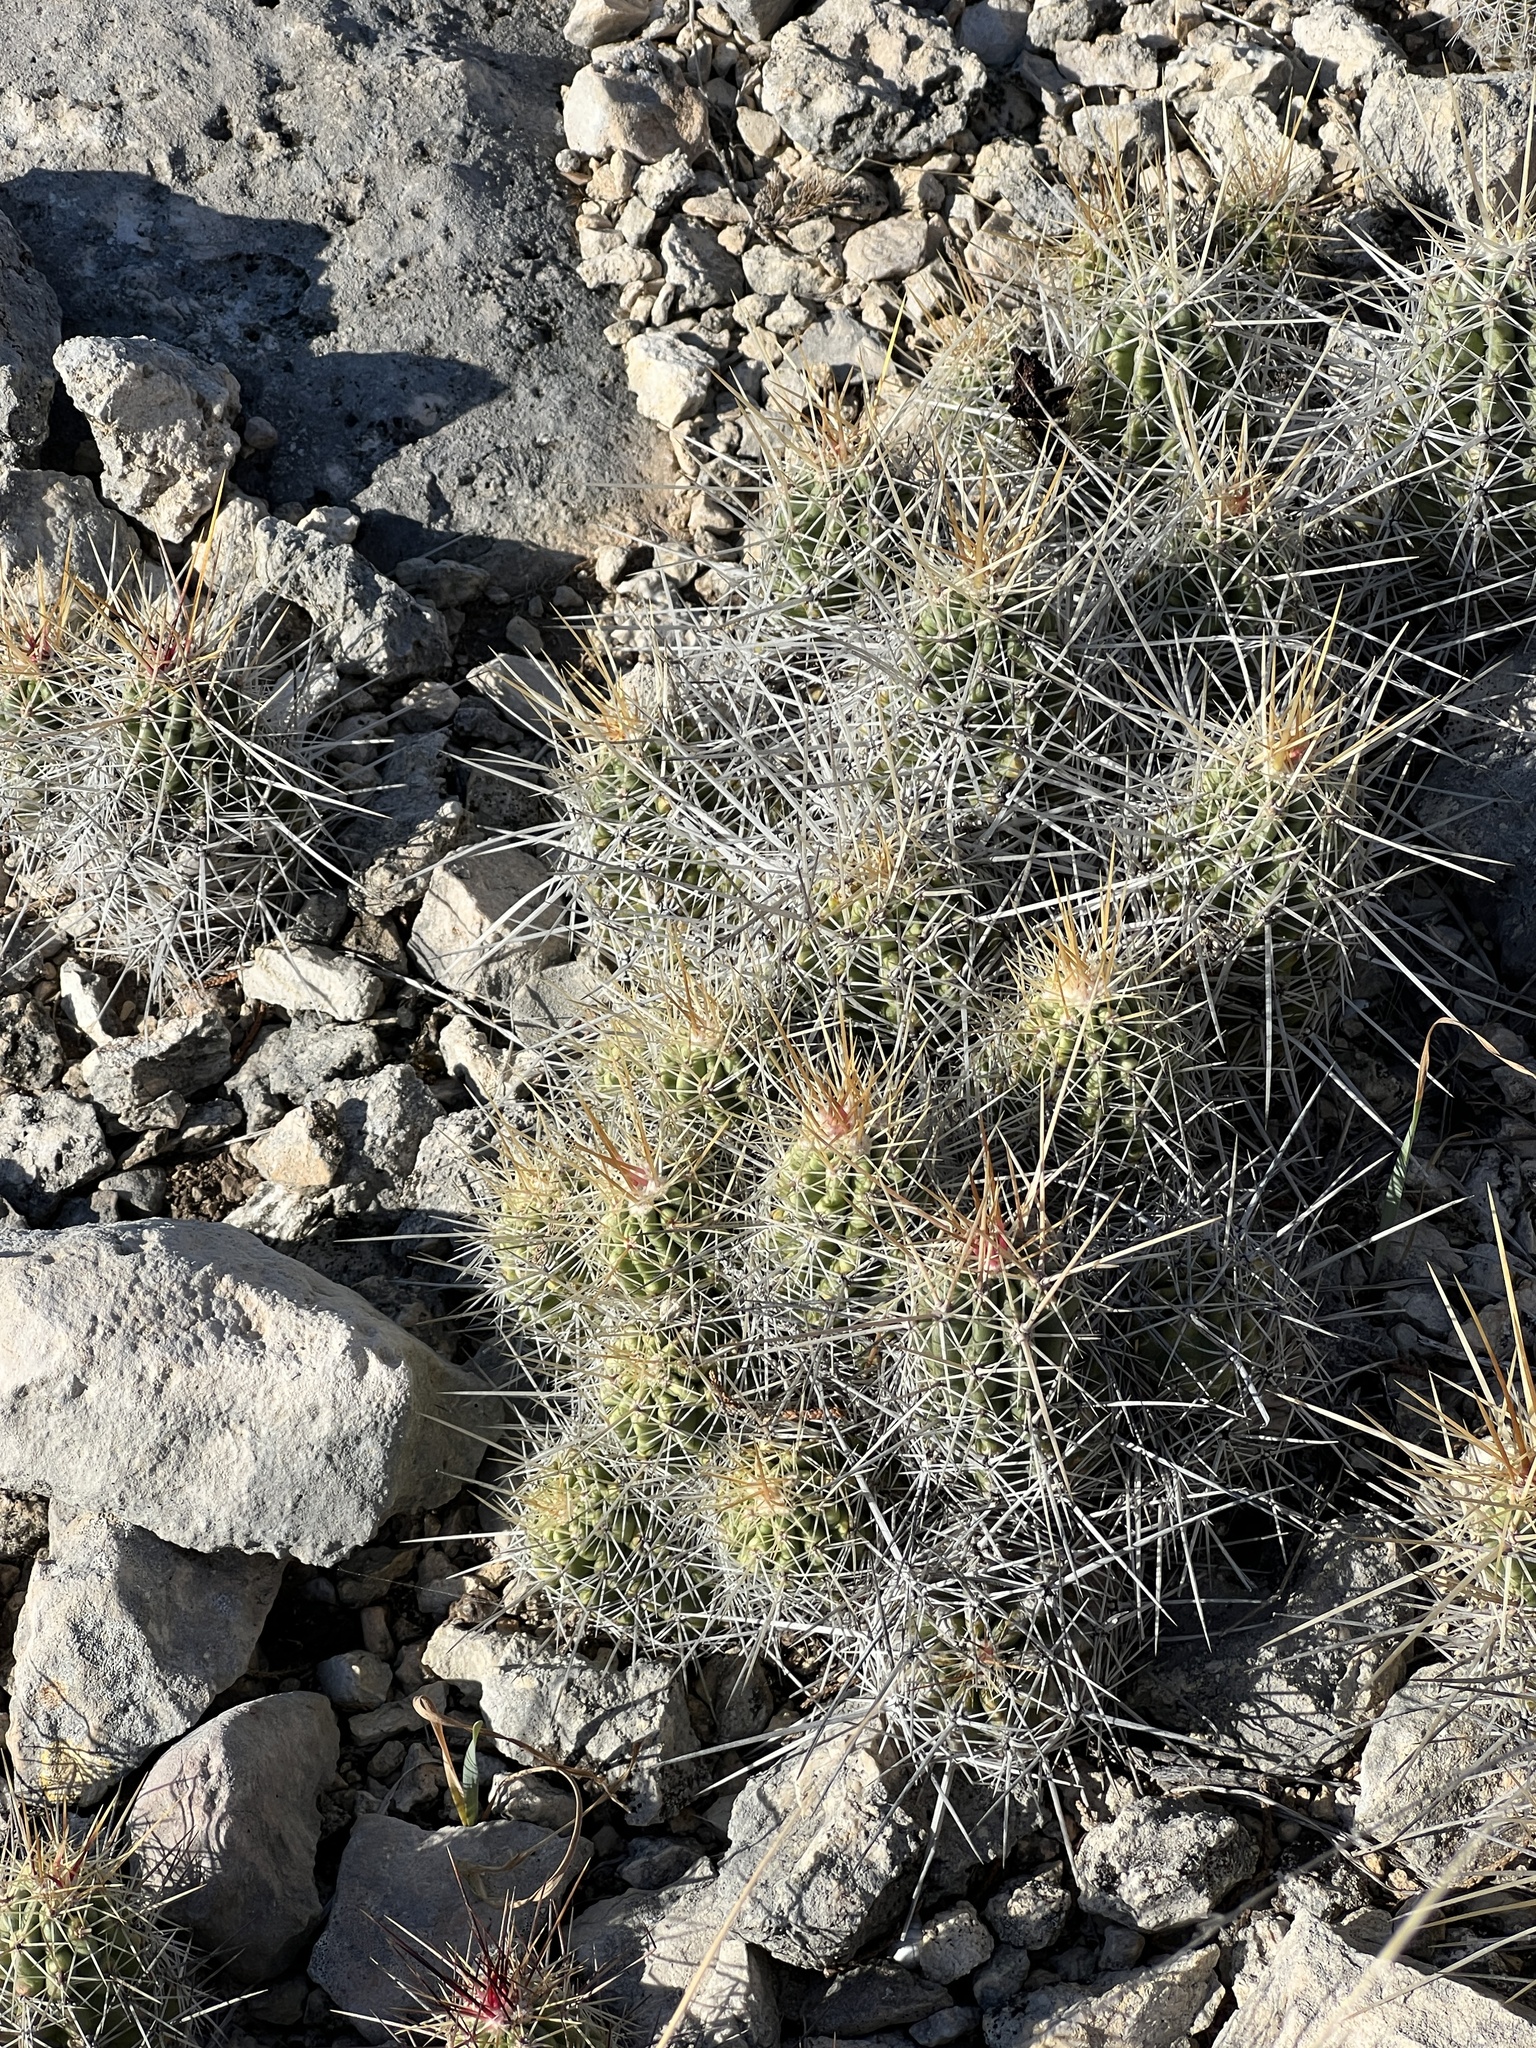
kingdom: Plantae
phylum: Tracheophyta
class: Magnoliopsida
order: Caryophyllales
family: Cactaceae
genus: Echinocereus
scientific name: Echinocereus enneacanthus
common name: Pitaya
